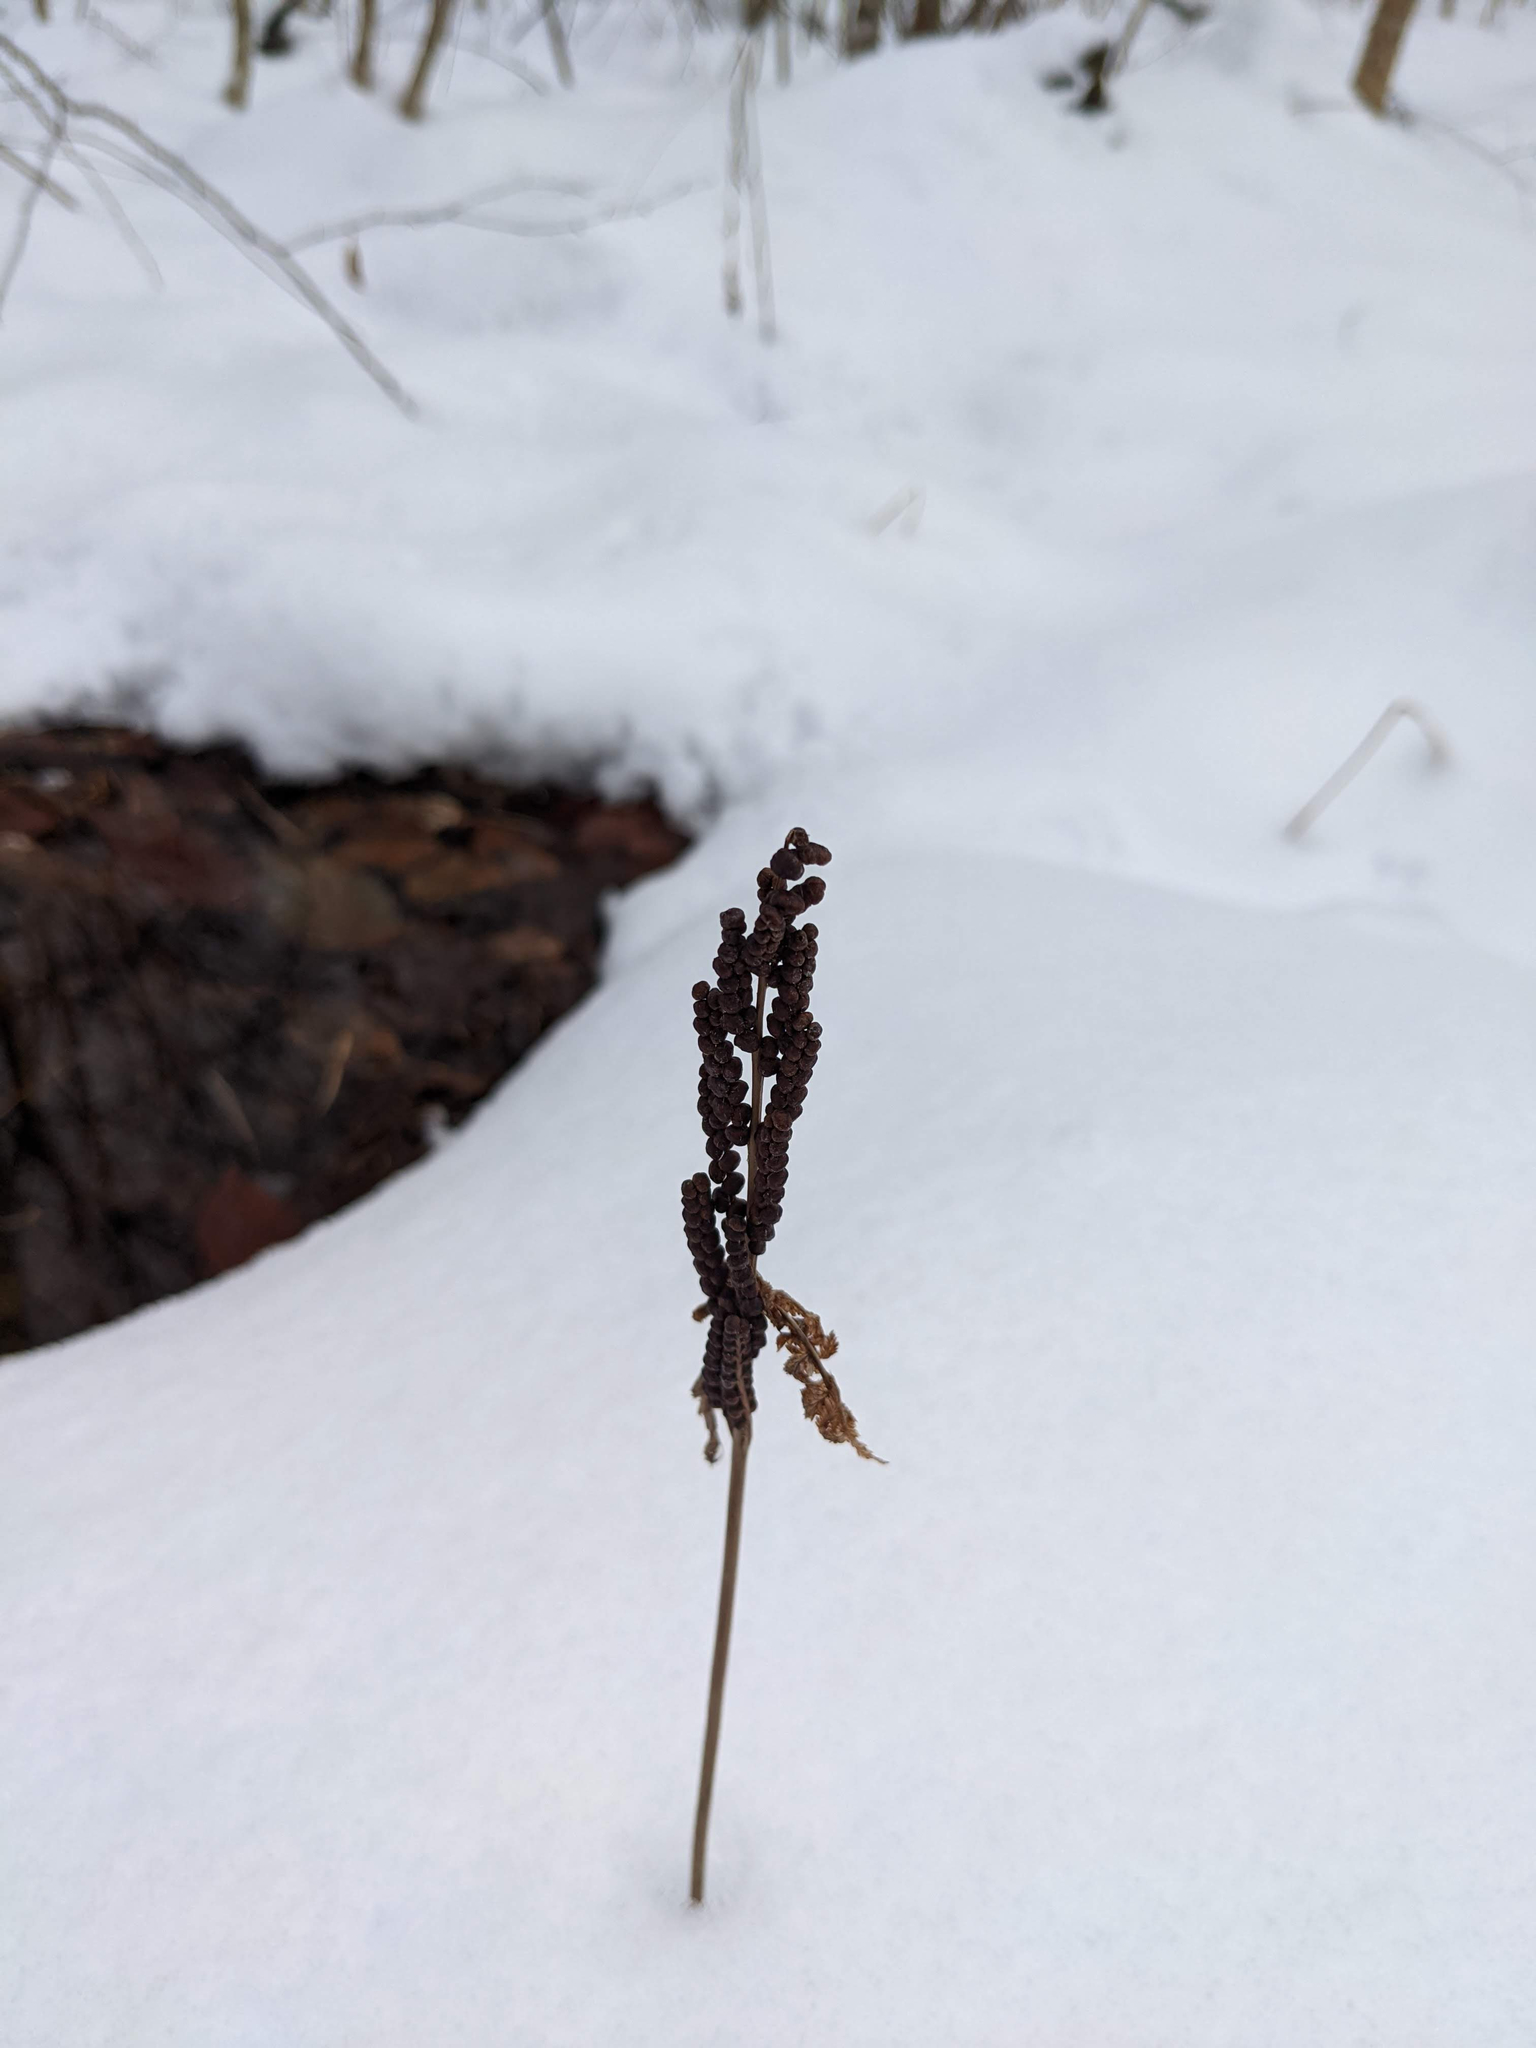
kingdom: Plantae
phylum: Tracheophyta
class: Polypodiopsida
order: Polypodiales
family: Onocleaceae
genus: Onoclea
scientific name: Onoclea sensibilis
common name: Sensitive fern
